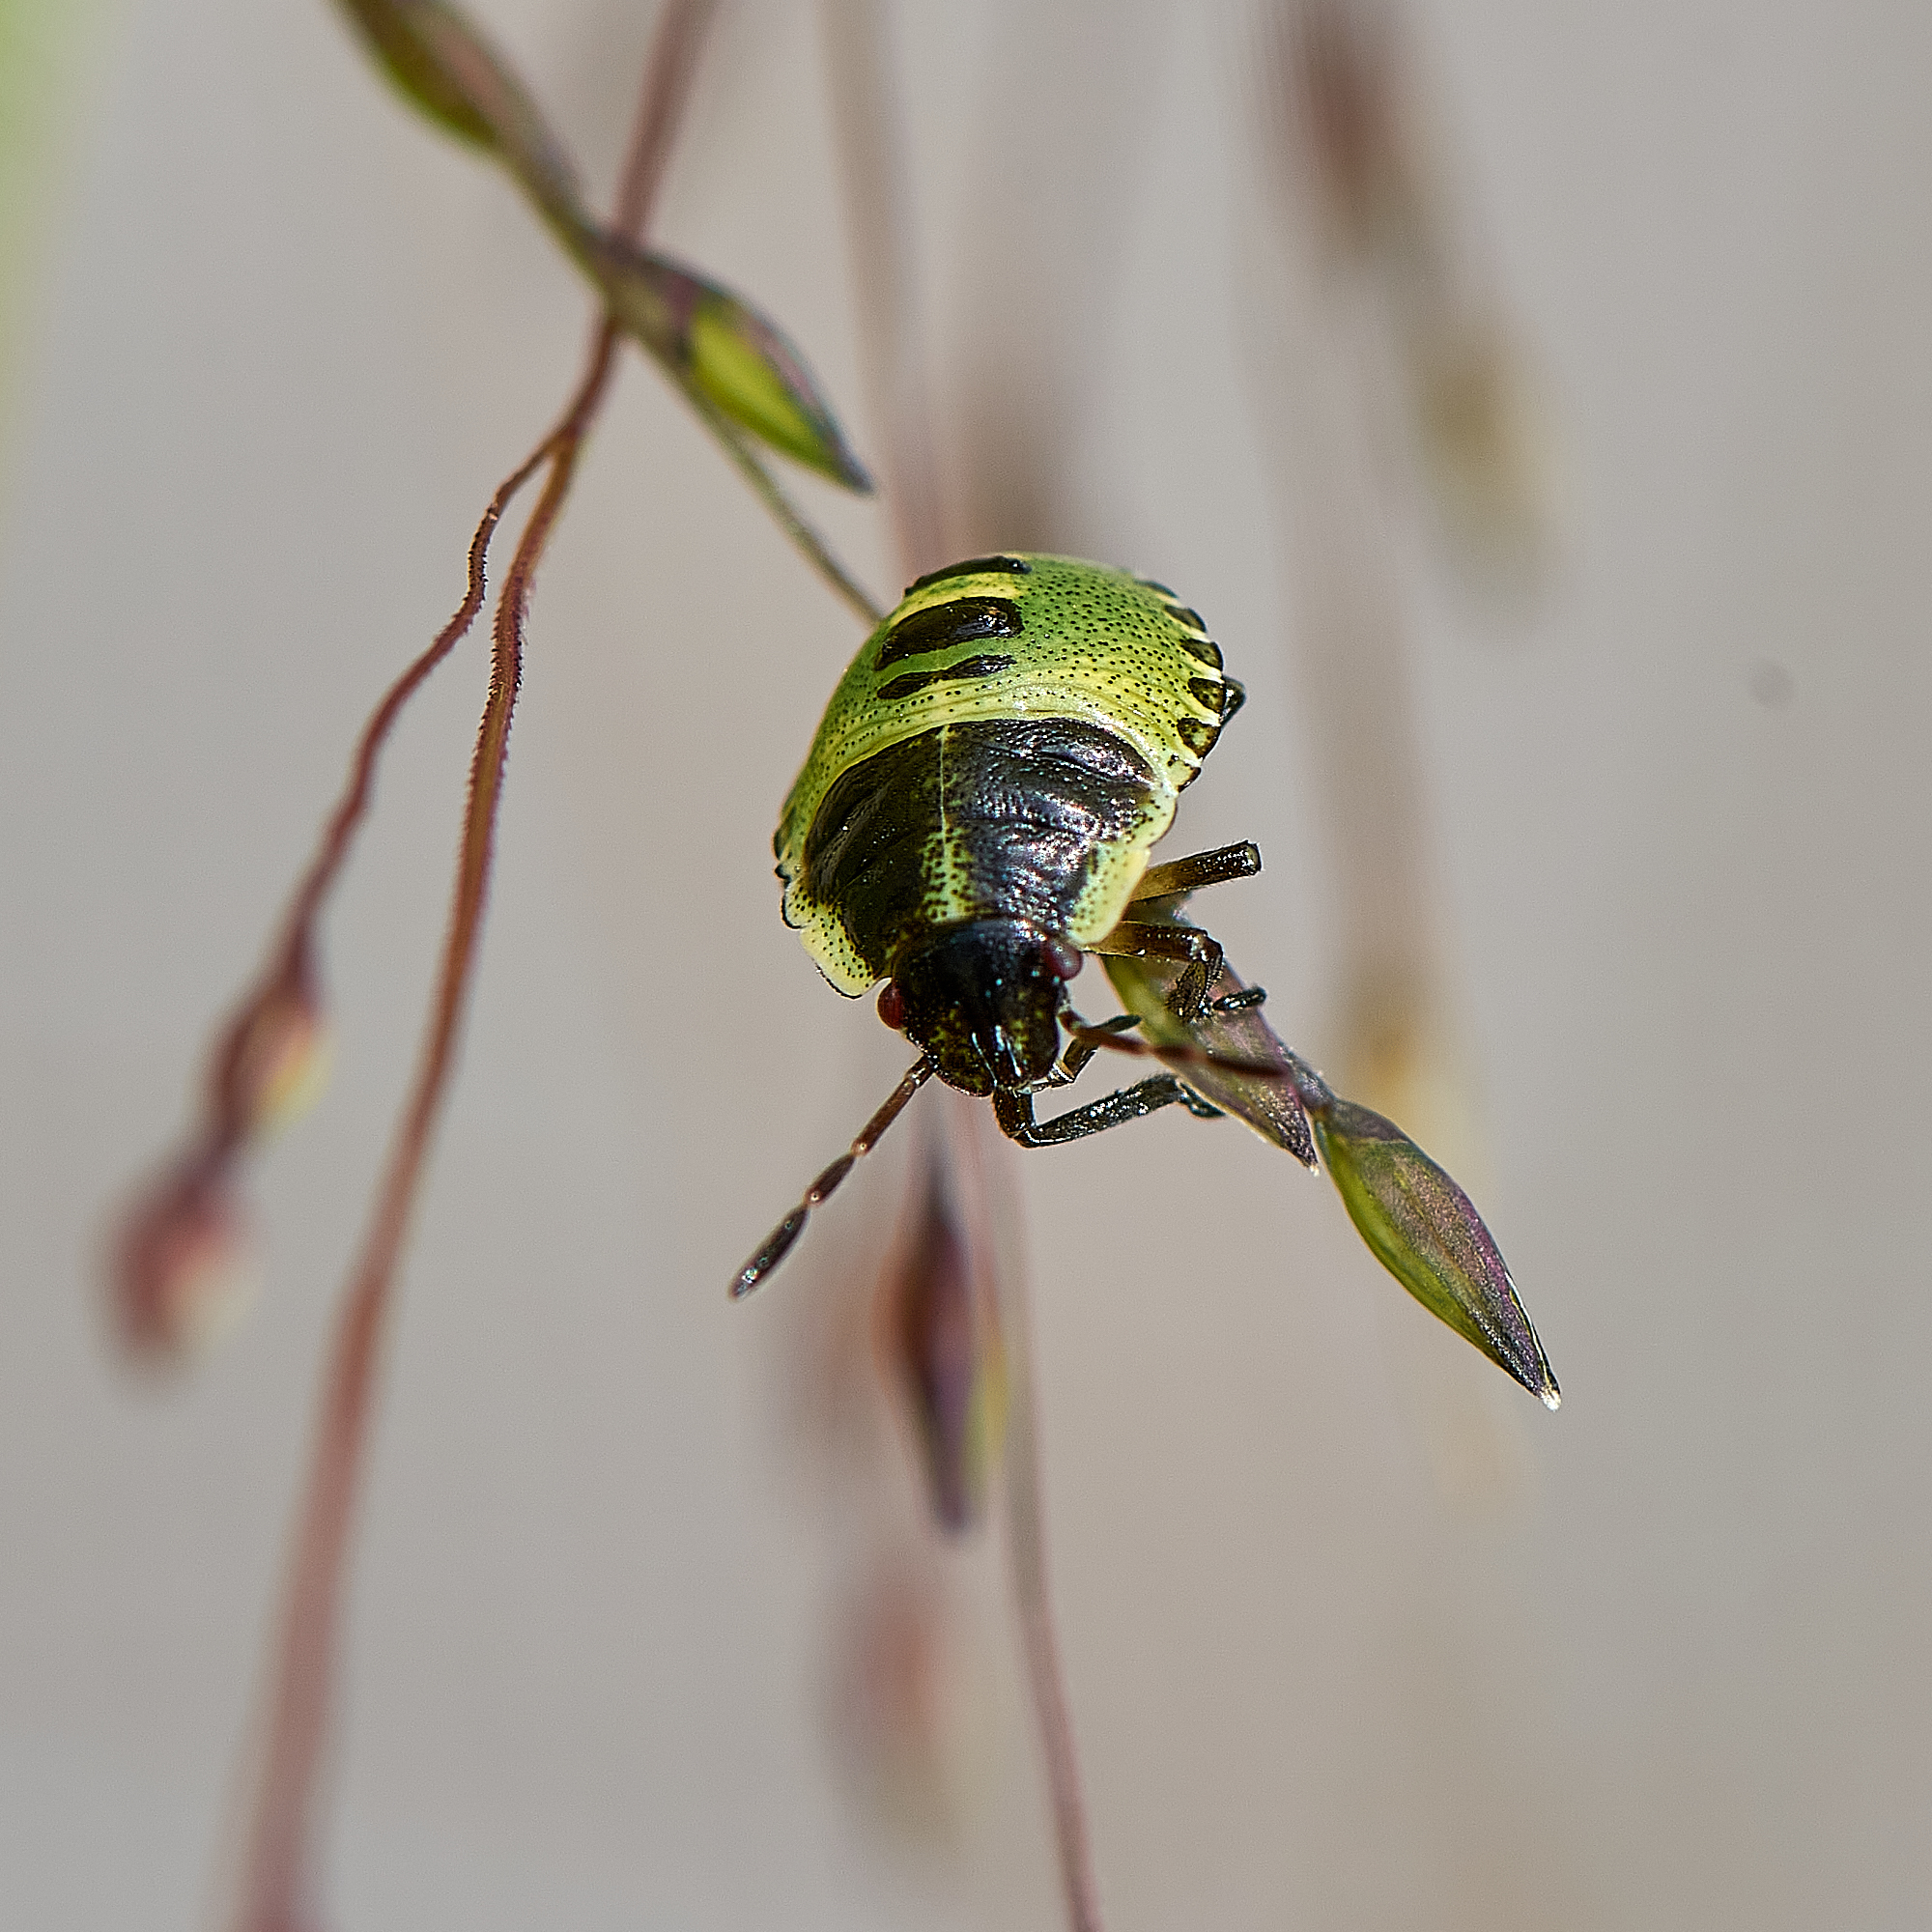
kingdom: Animalia
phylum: Arthropoda
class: Insecta
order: Hemiptera
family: Pentatomidae
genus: Palomena
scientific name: Palomena prasina
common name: Green shieldbug
